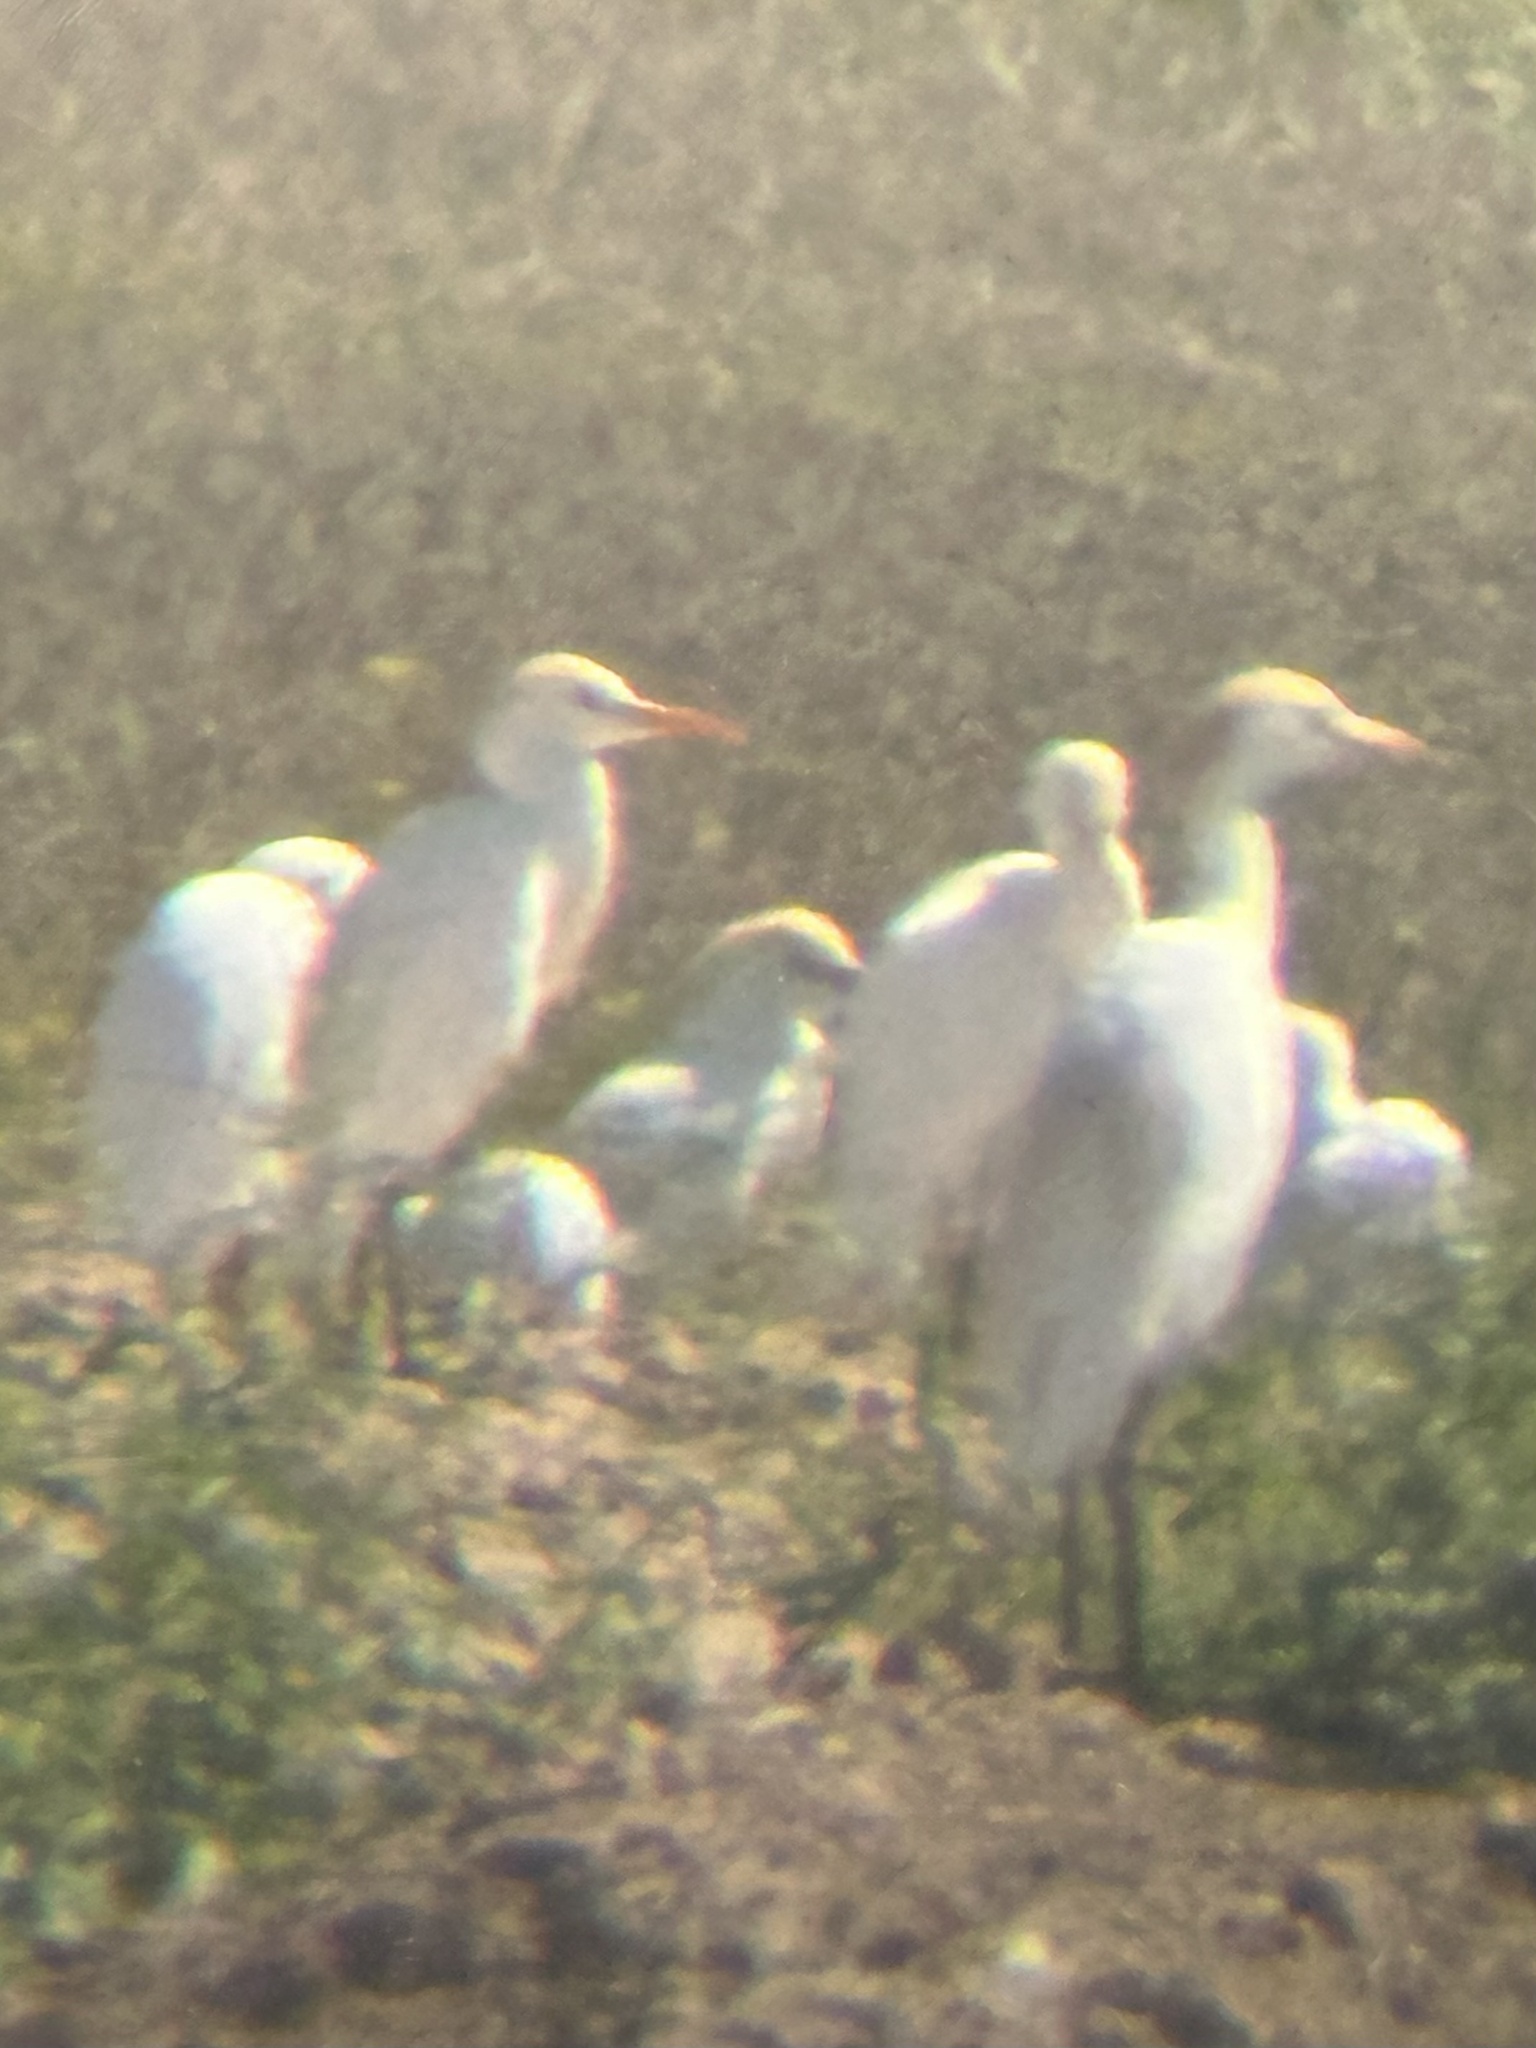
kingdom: Animalia
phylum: Chordata
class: Aves
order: Pelecaniformes
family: Ardeidae
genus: Bubulcus
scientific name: Bubulcus ibis
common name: Cattle egret
